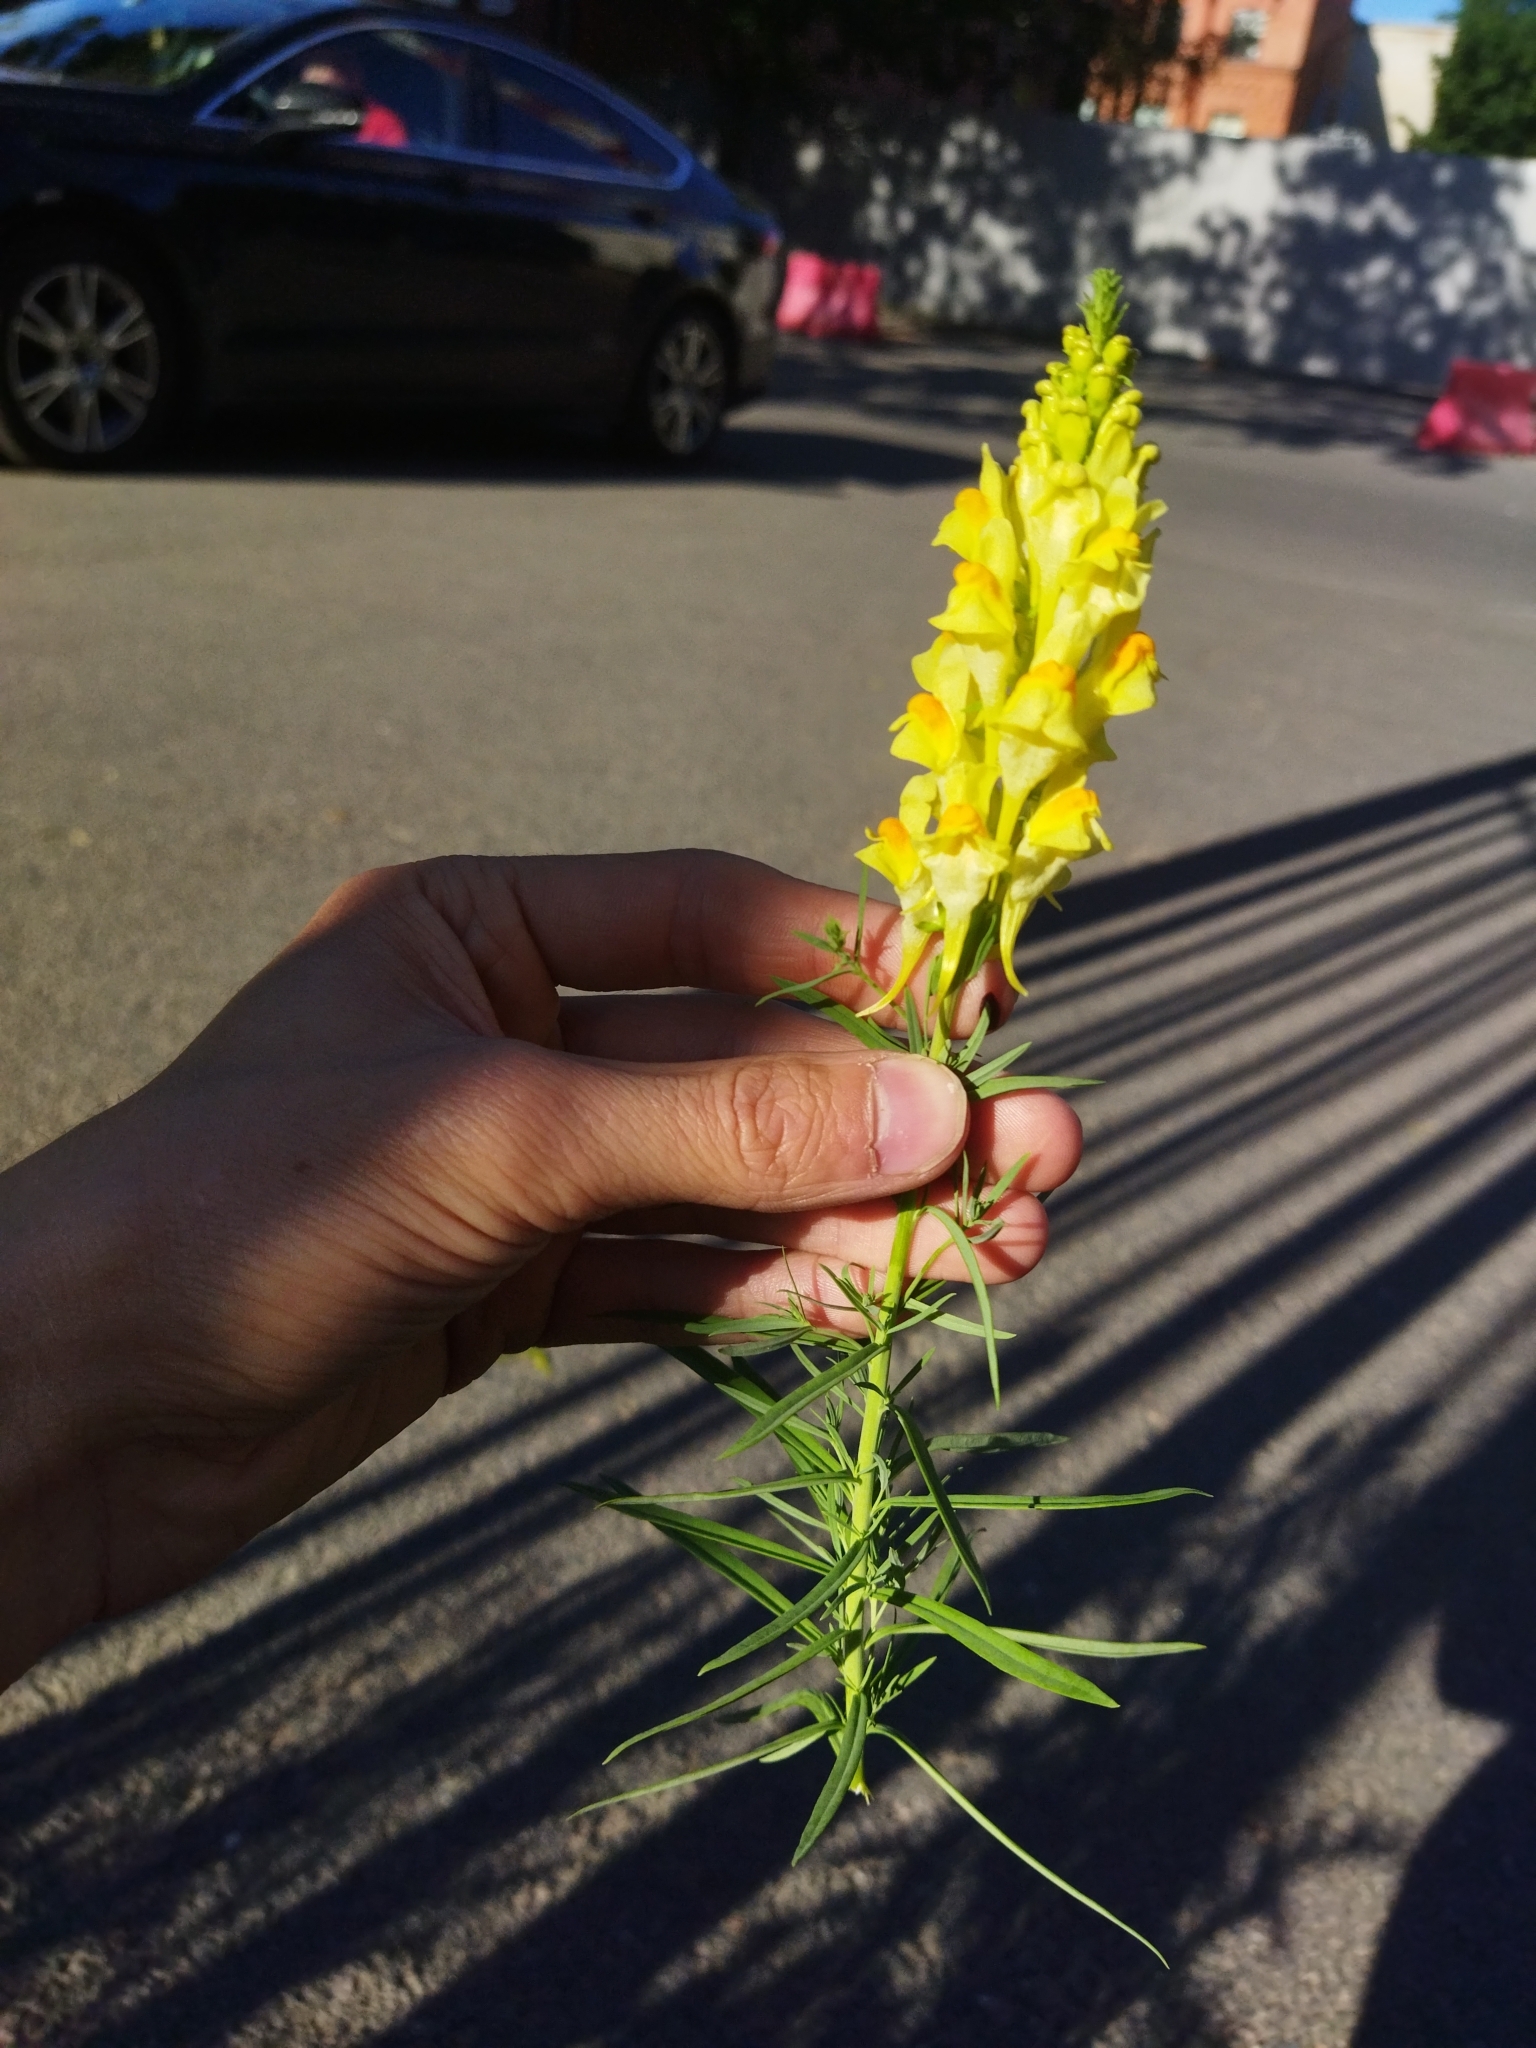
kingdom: Plantae
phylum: Tracheophyta
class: Magnoliopsida
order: Lamiales
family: Plantaginaceae
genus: Linaria
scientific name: Linaria vulgaris
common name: Butter and eggs
